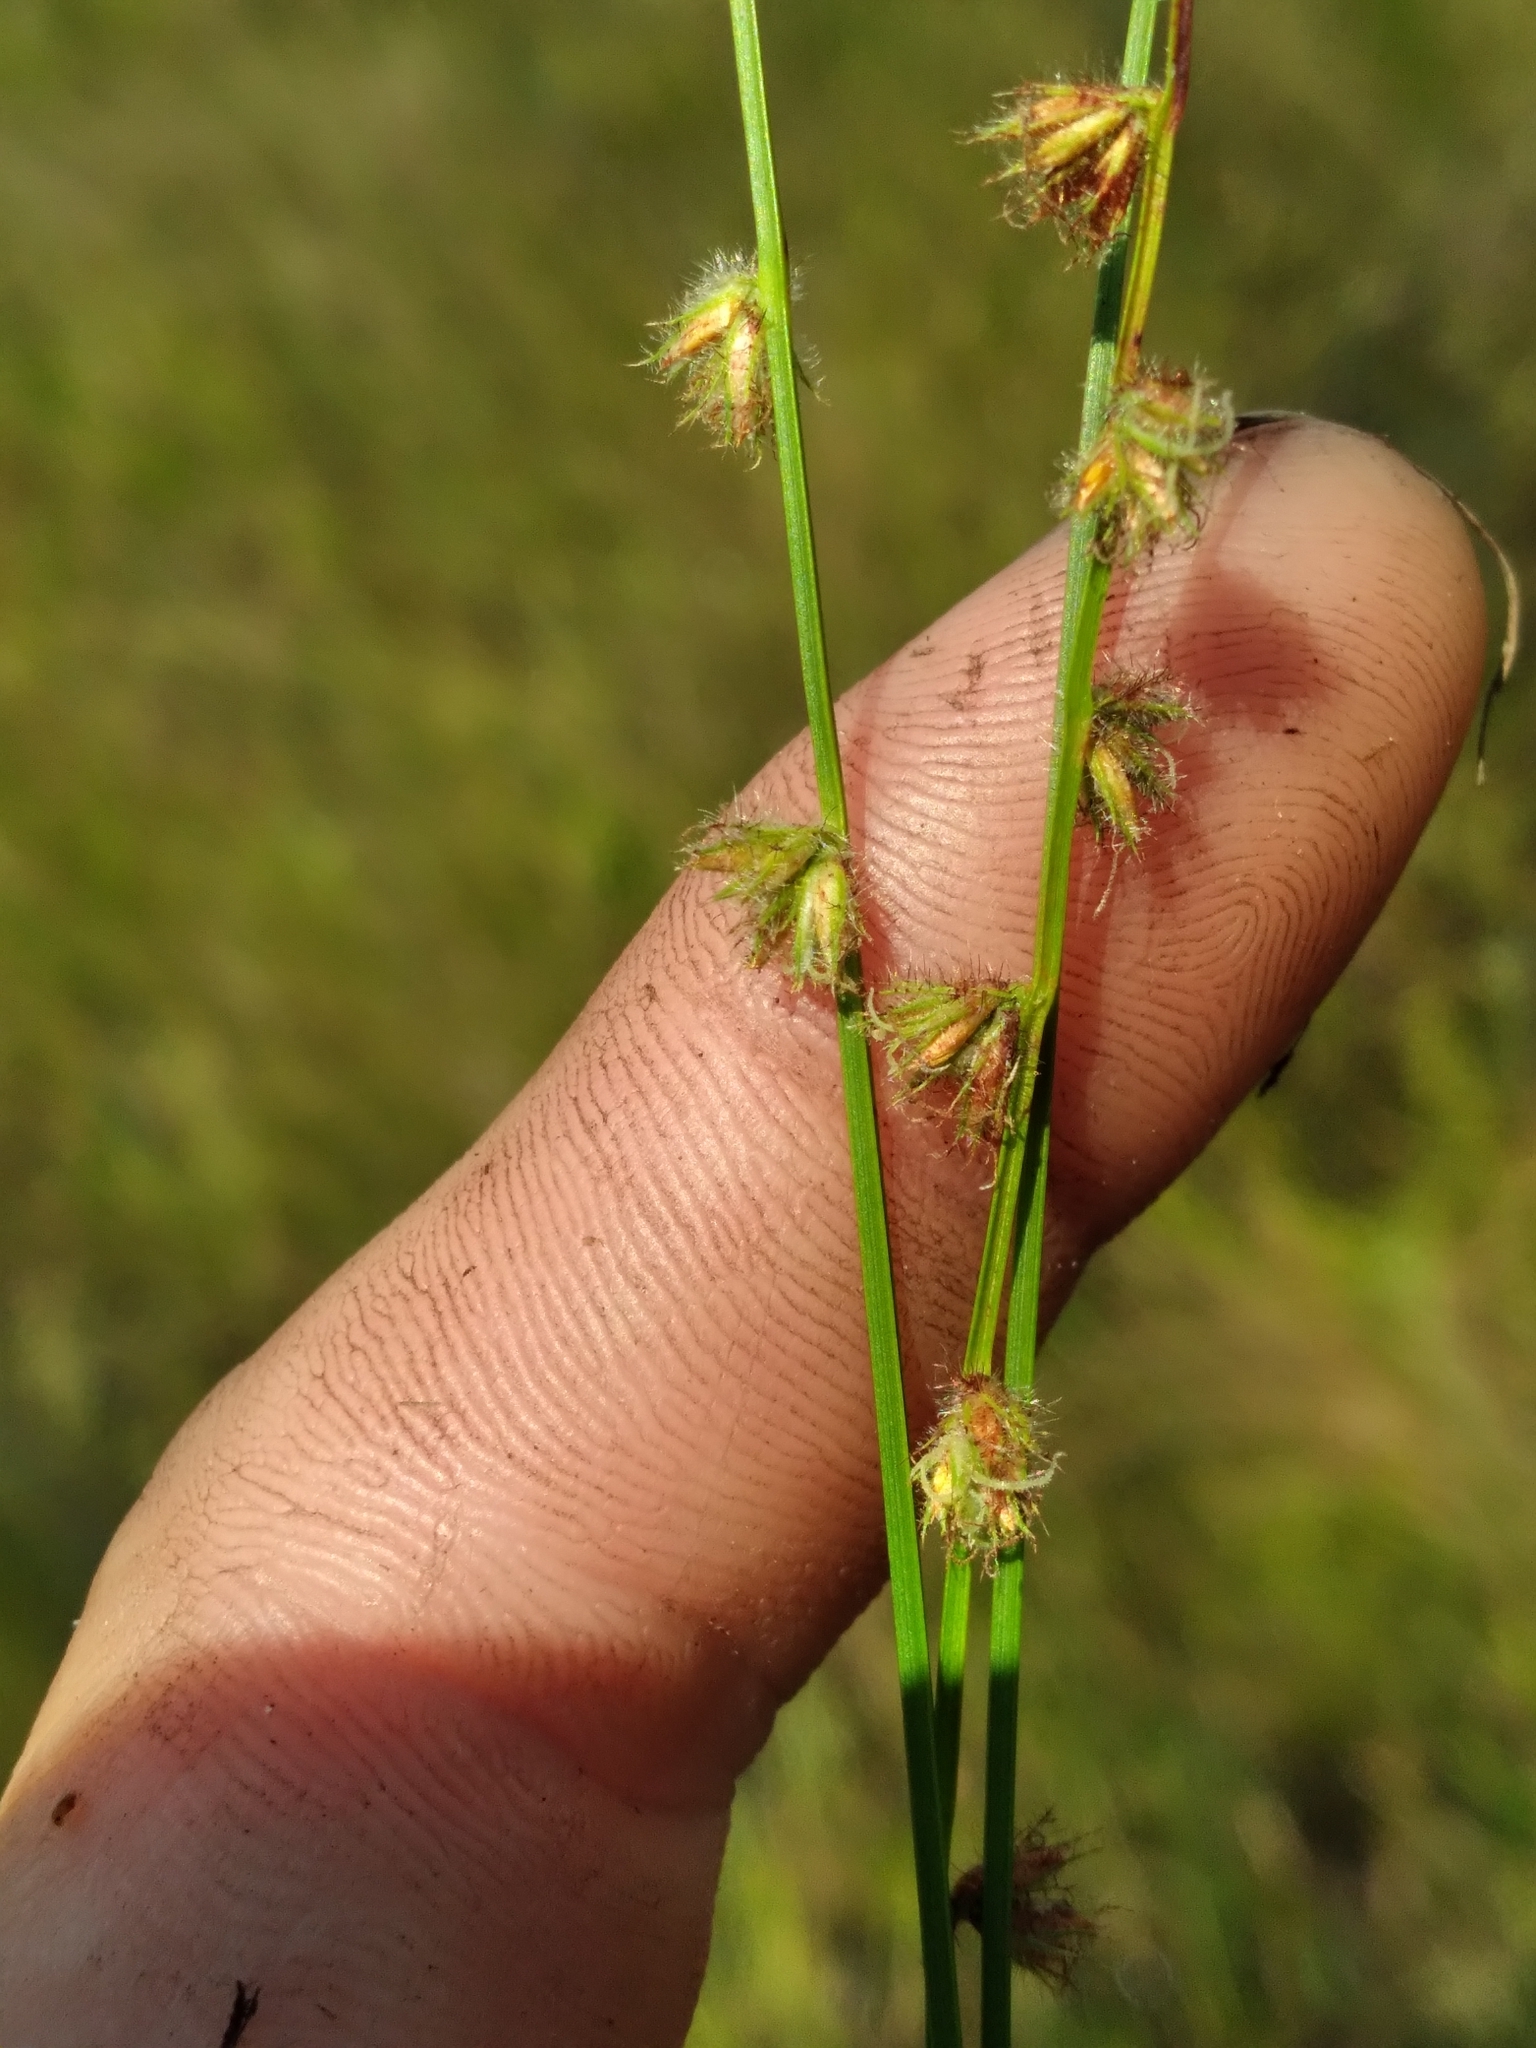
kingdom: Plantae
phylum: Tracheophyta
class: Liliopsida
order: Poales
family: Cyperaceae
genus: Scleria
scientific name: Scleria distans
